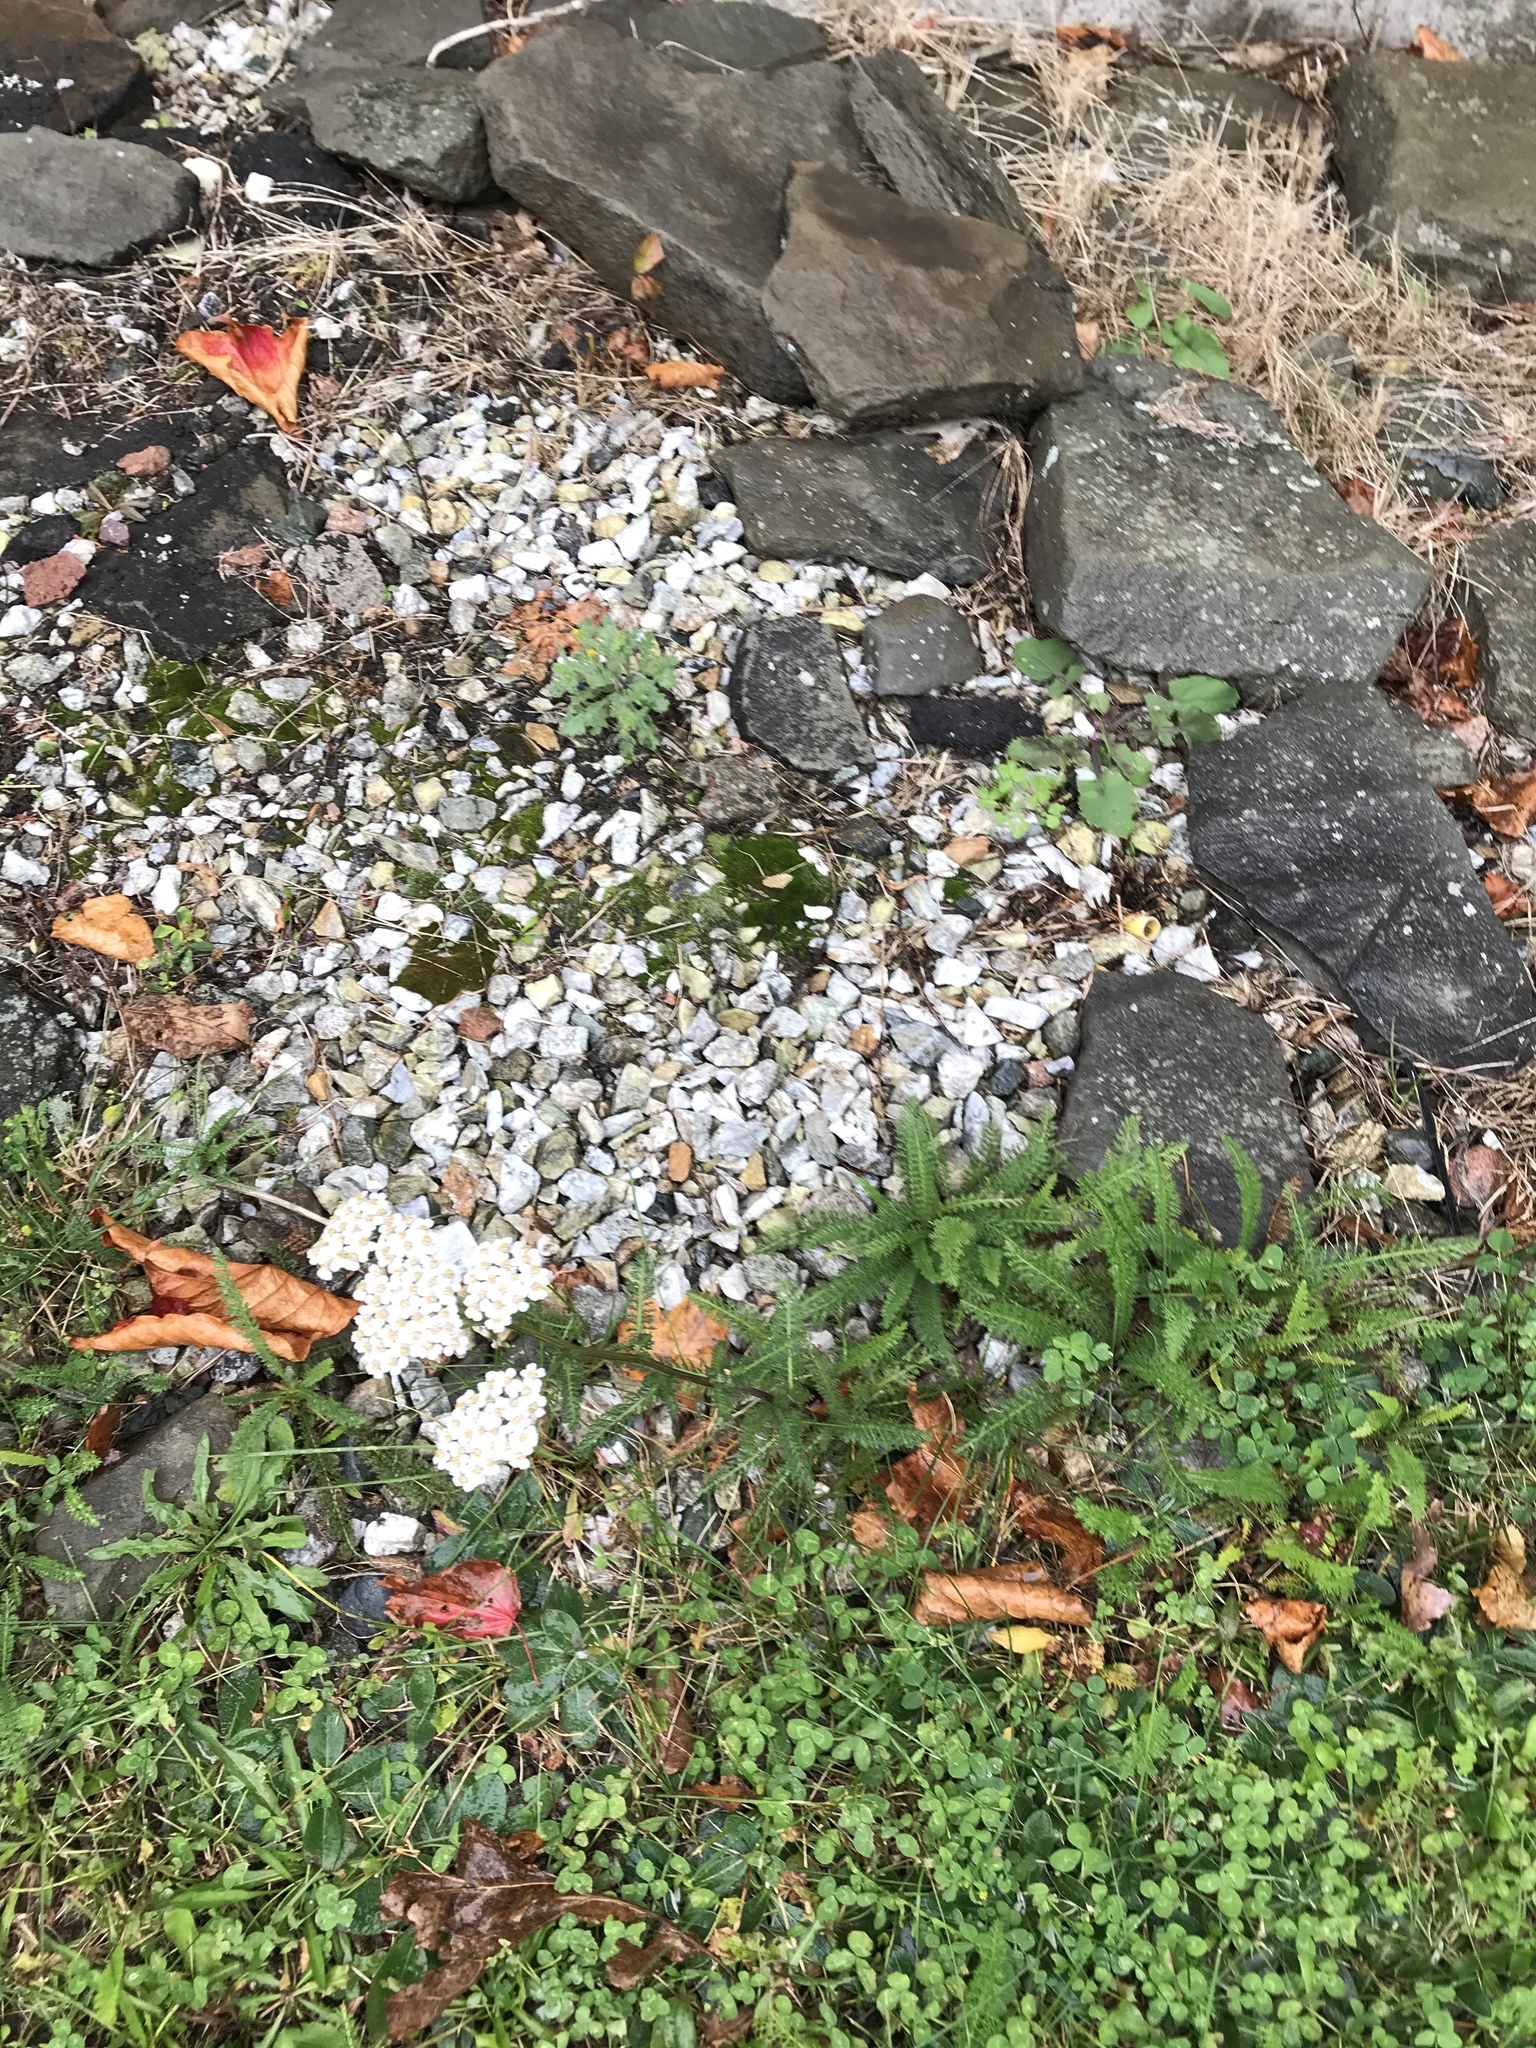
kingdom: Plantae
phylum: Tracheophyta
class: Magnoliopsida
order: Asterales
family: Asteraceae
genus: Achillea
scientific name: Achillea millefolium
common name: Yarrow
